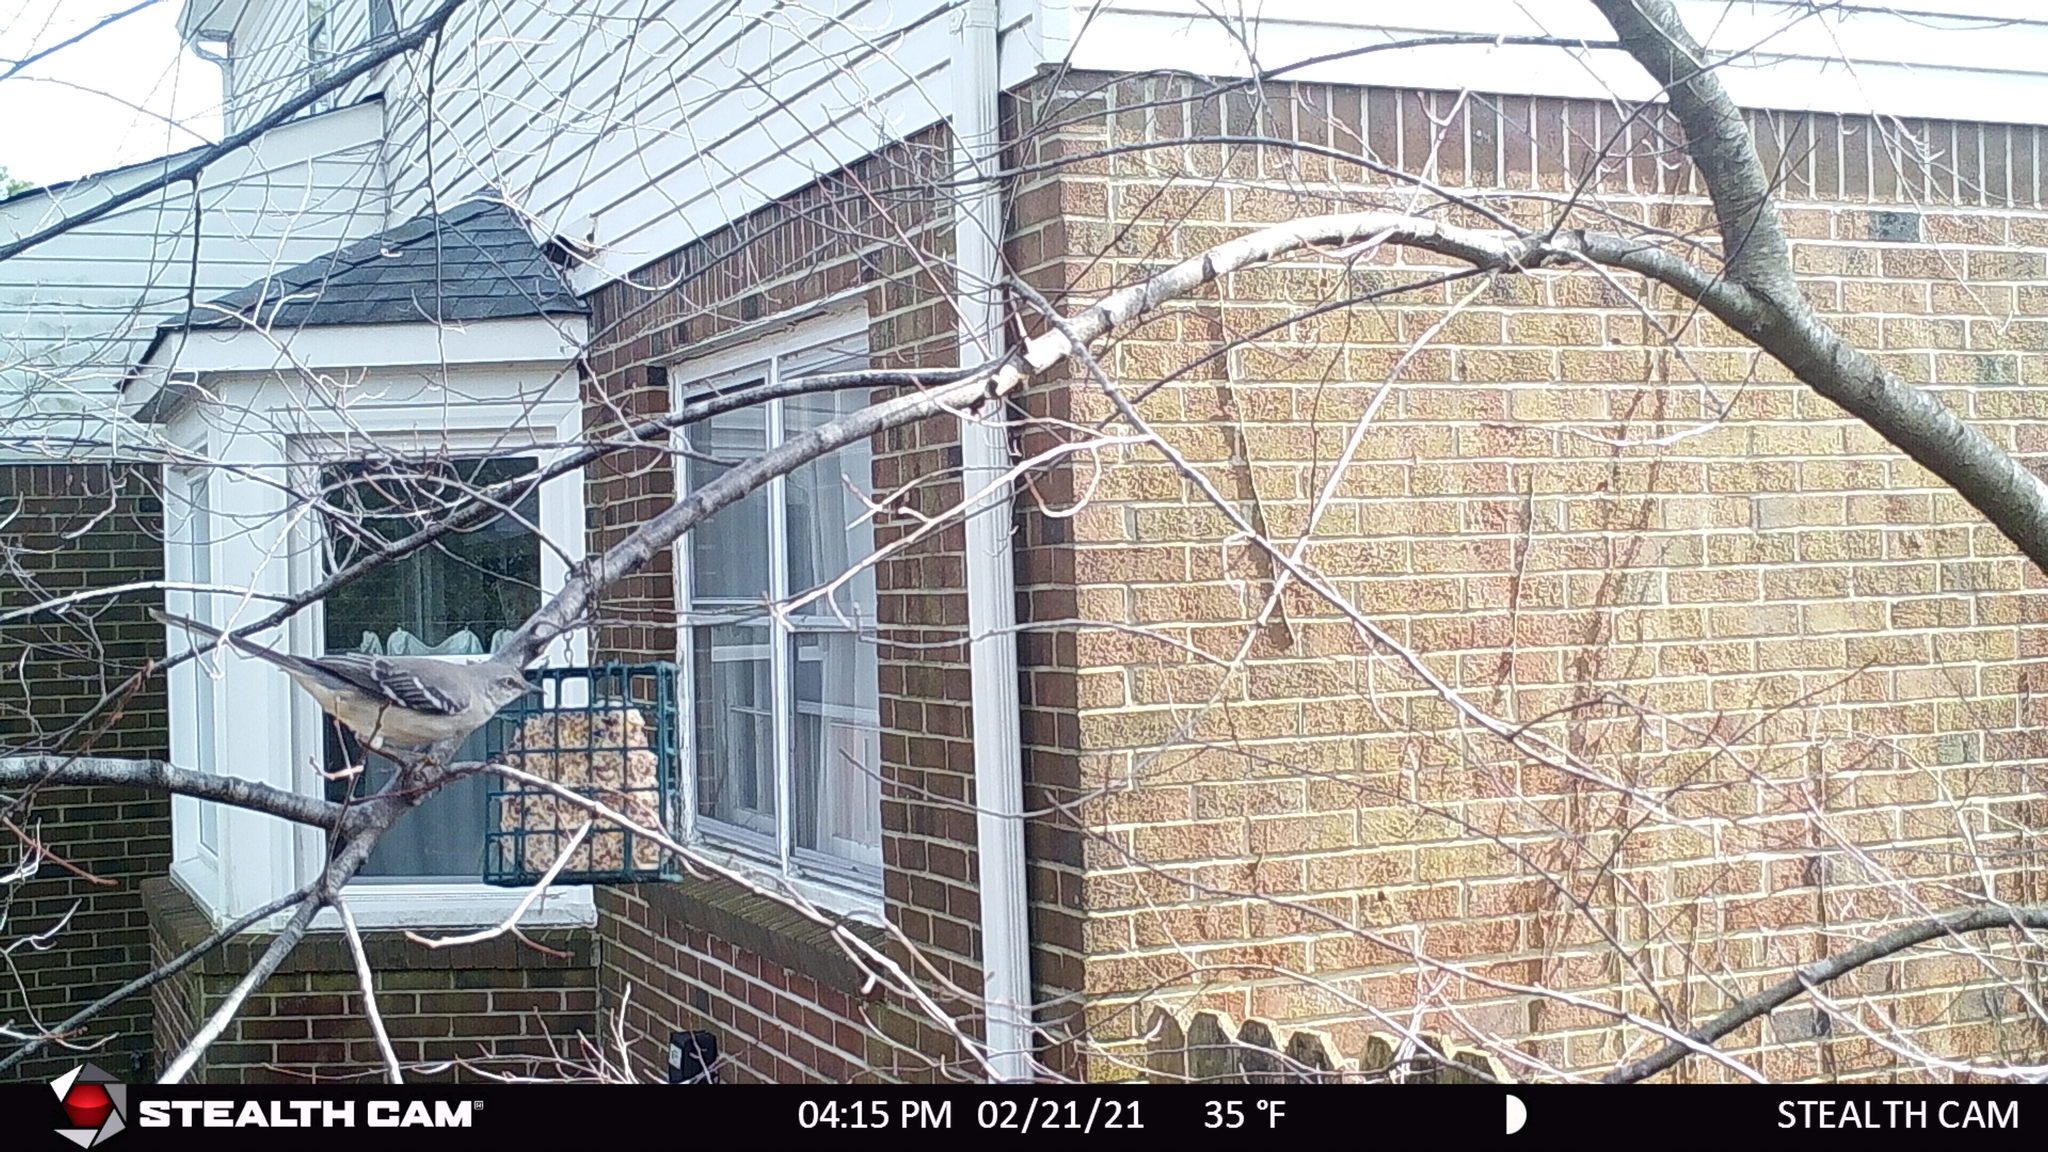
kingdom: Animalia
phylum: Chordata
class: Aves
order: Passeriformes
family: Mimidae
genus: Mimus
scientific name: Mimus polyglottos
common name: Northern mockingbird
